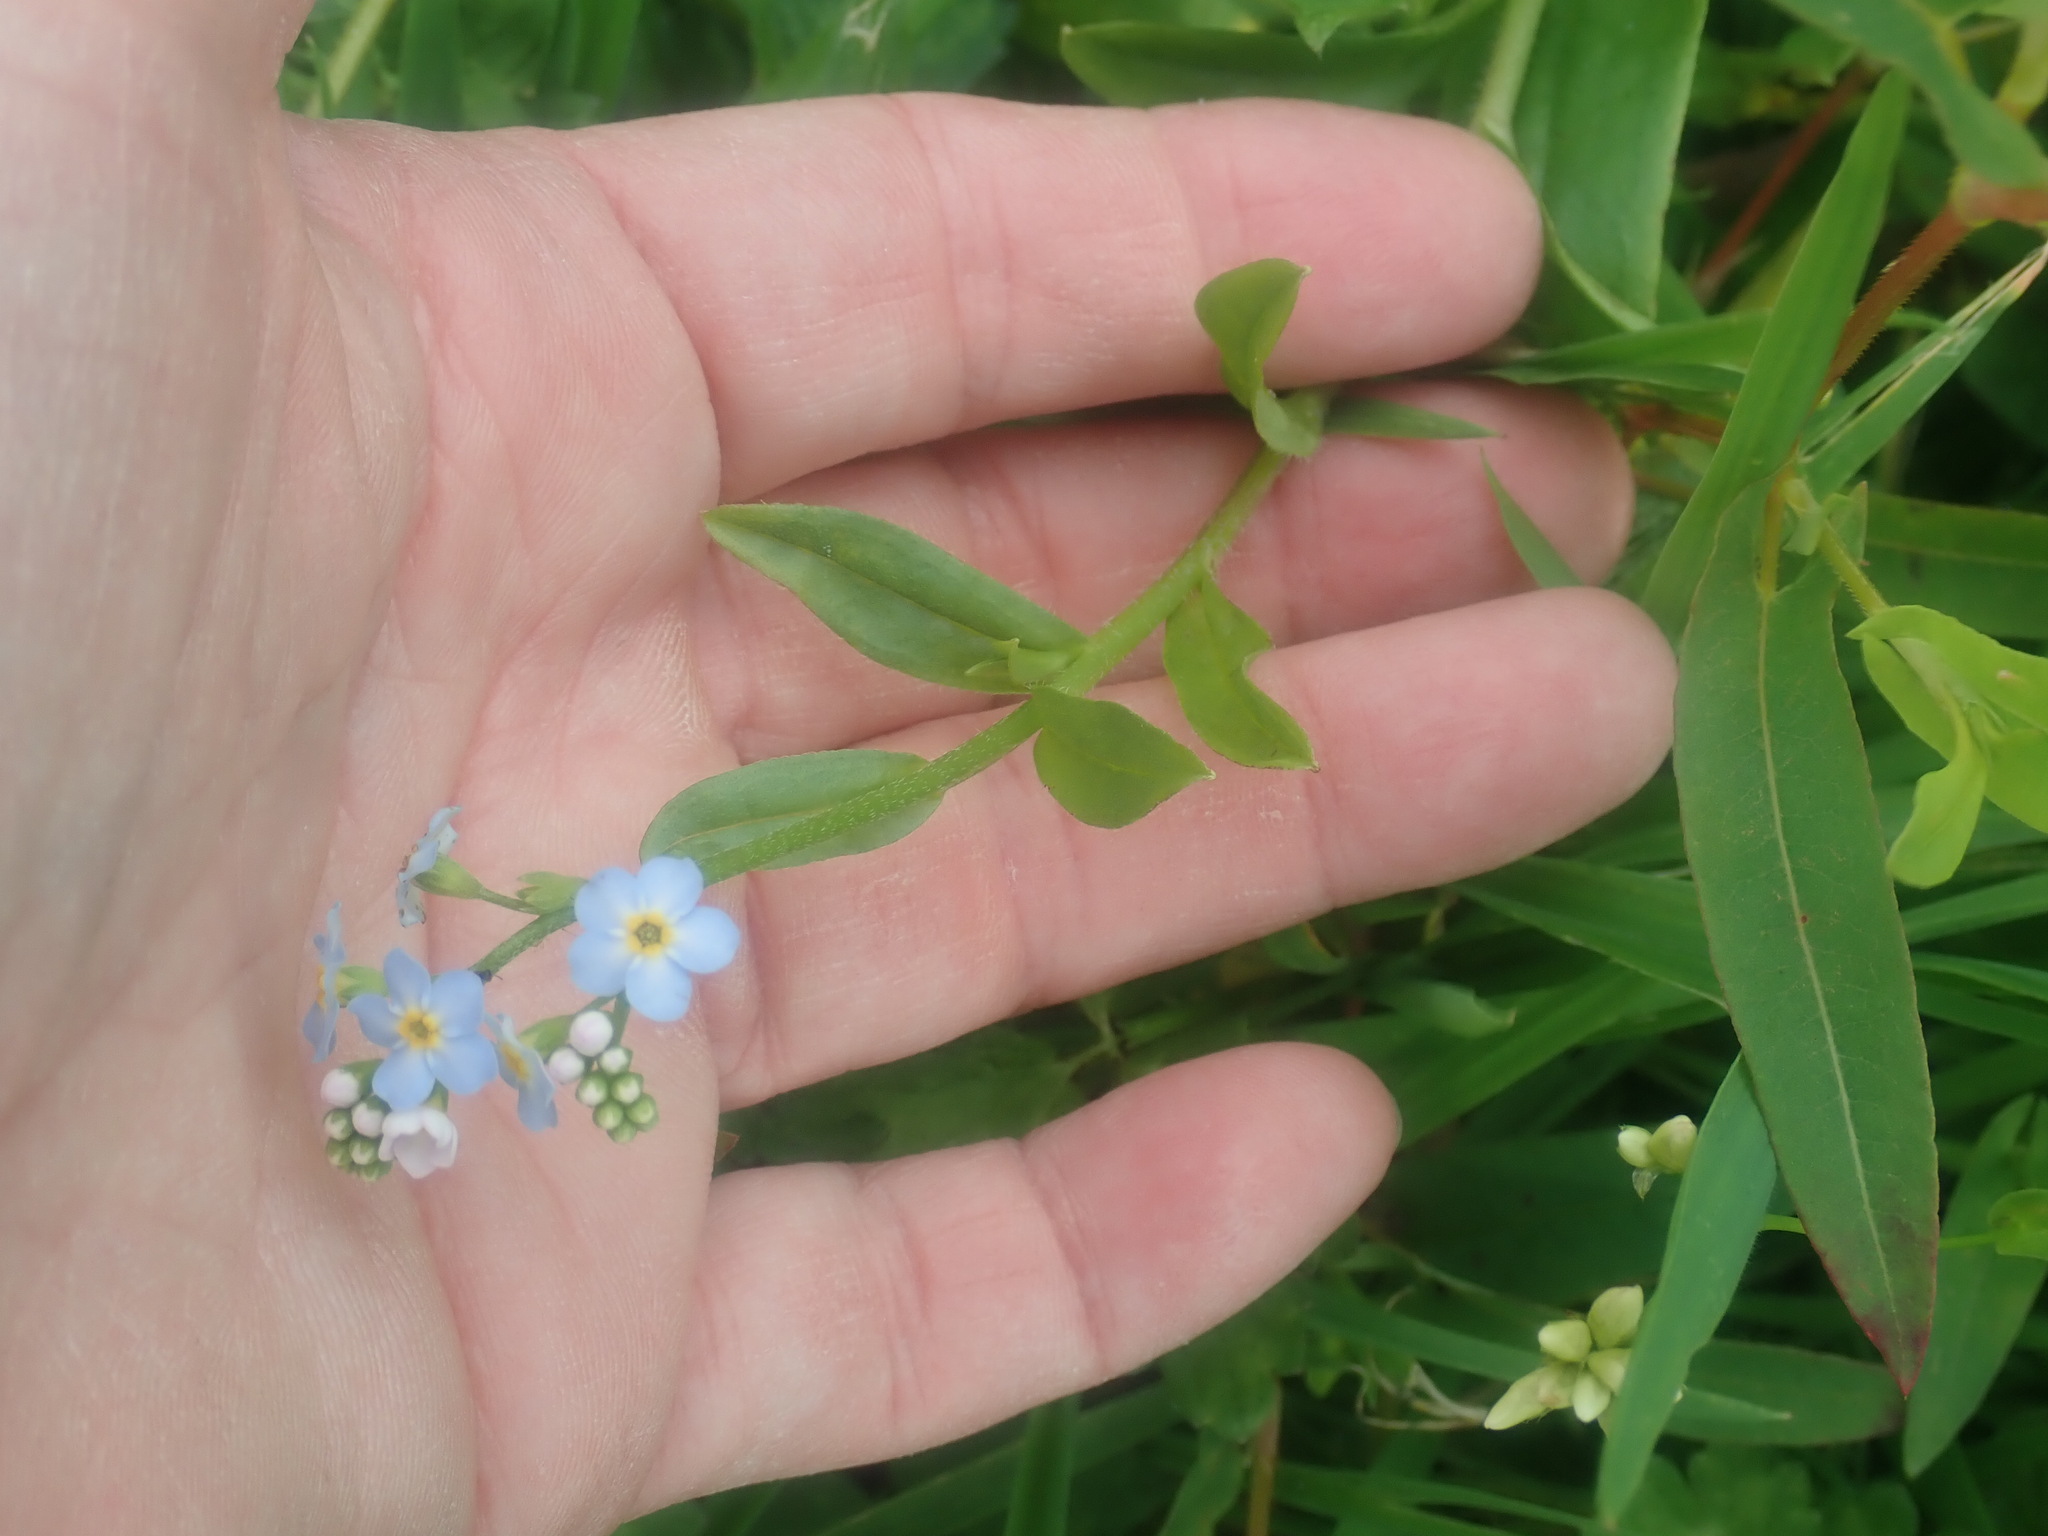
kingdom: Plantae
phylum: Tracheophyta
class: Magnoliopsida
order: Boraginales
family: Boraginaceae
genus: Myosotis
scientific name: Myosotis
